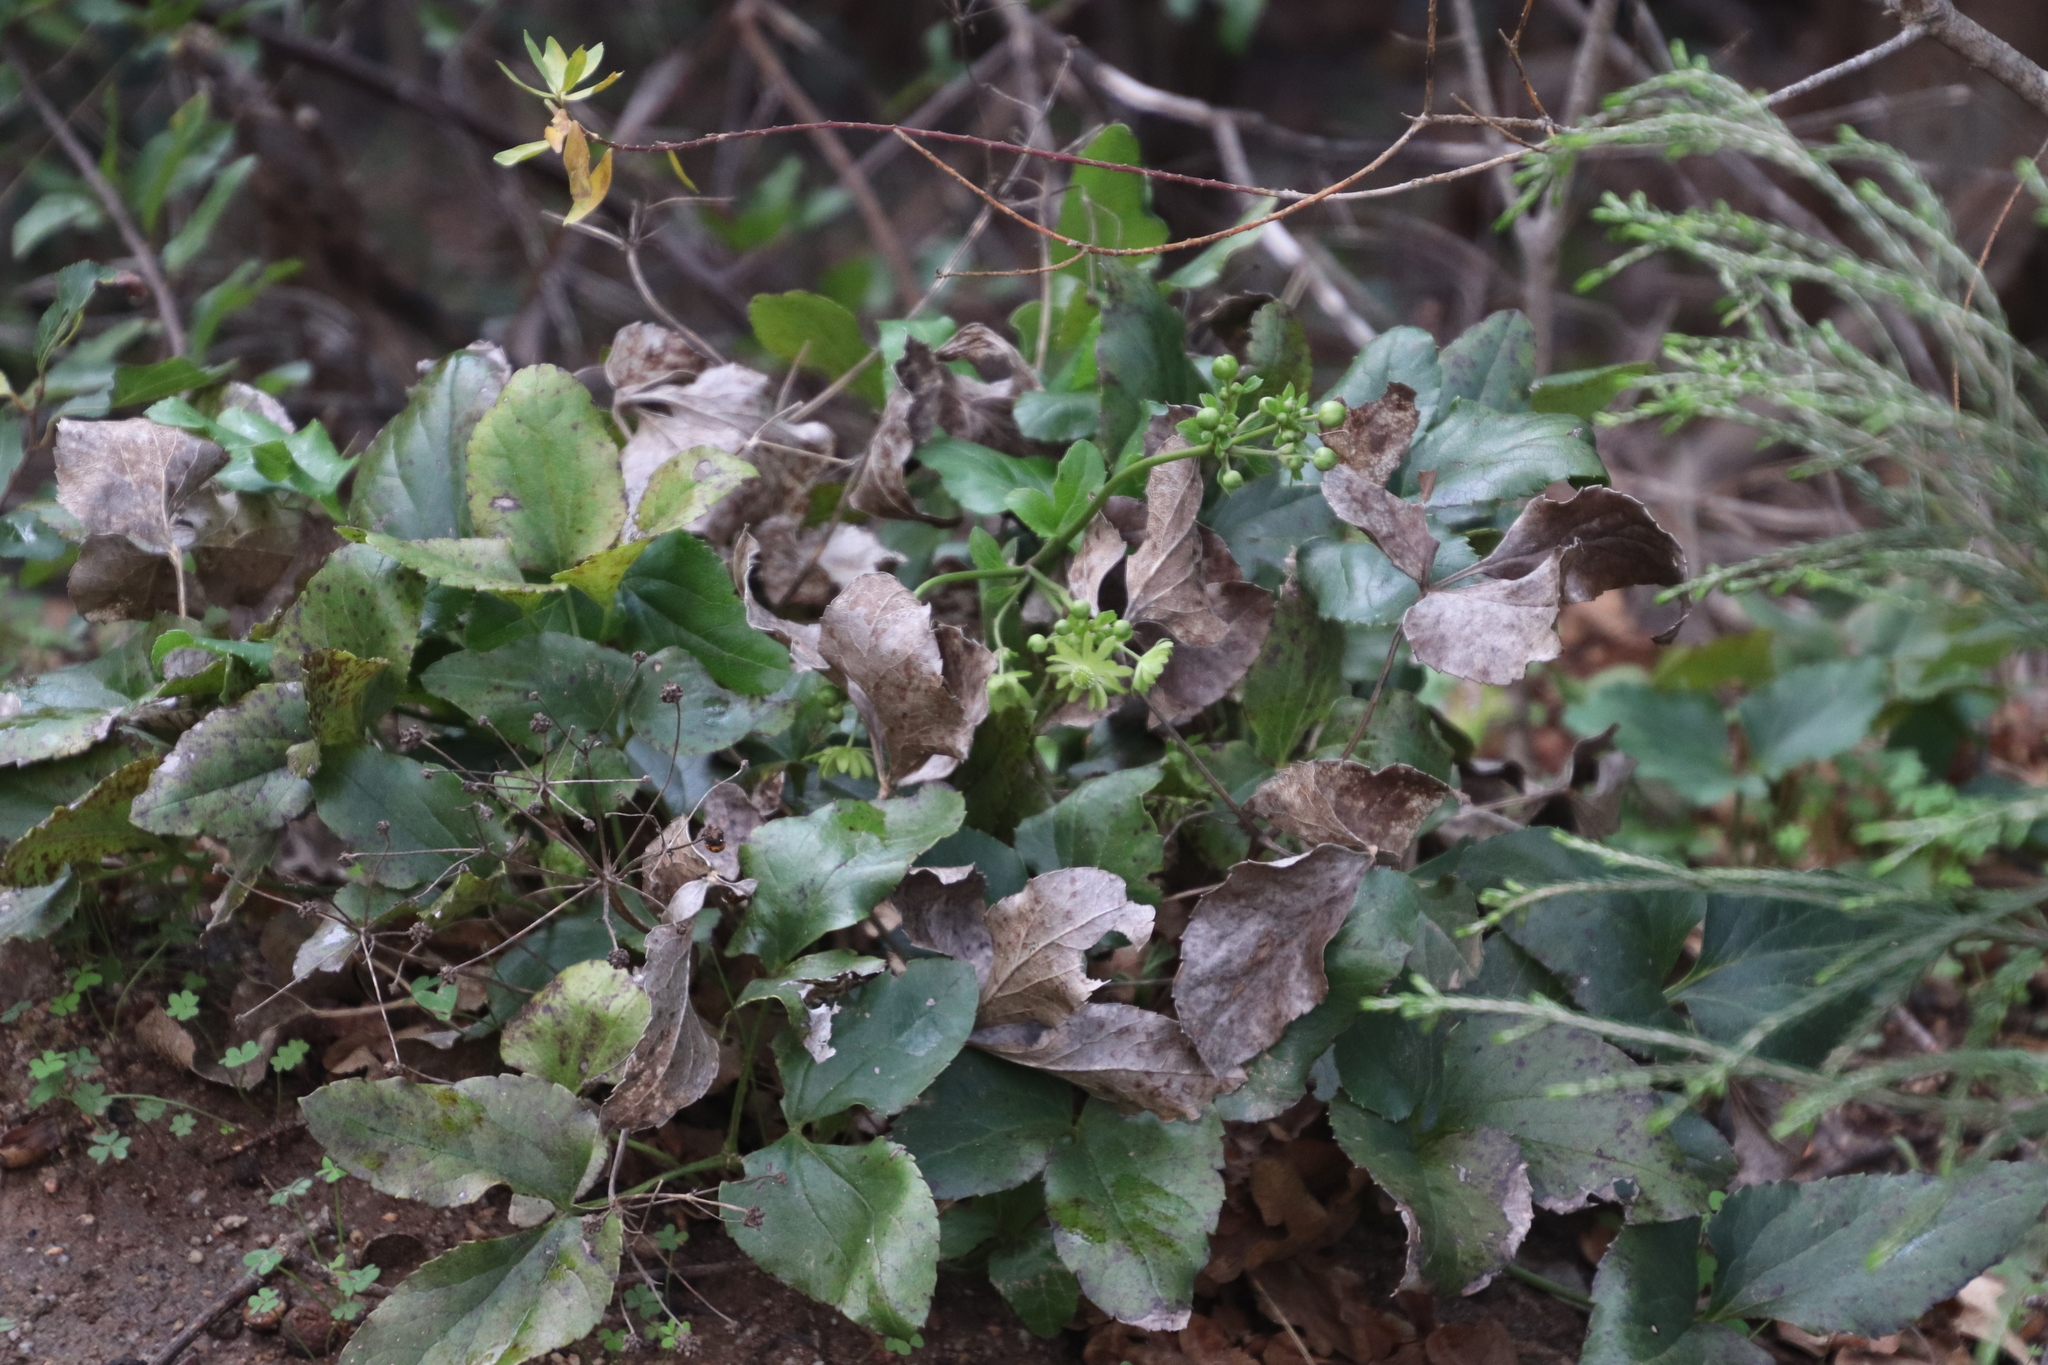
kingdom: Plantae
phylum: Tracheophyta
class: Magnoliopsida
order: Ranunculales
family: Ranunculaceae
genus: Knowltonia
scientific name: Knowltonia vesicatoria
